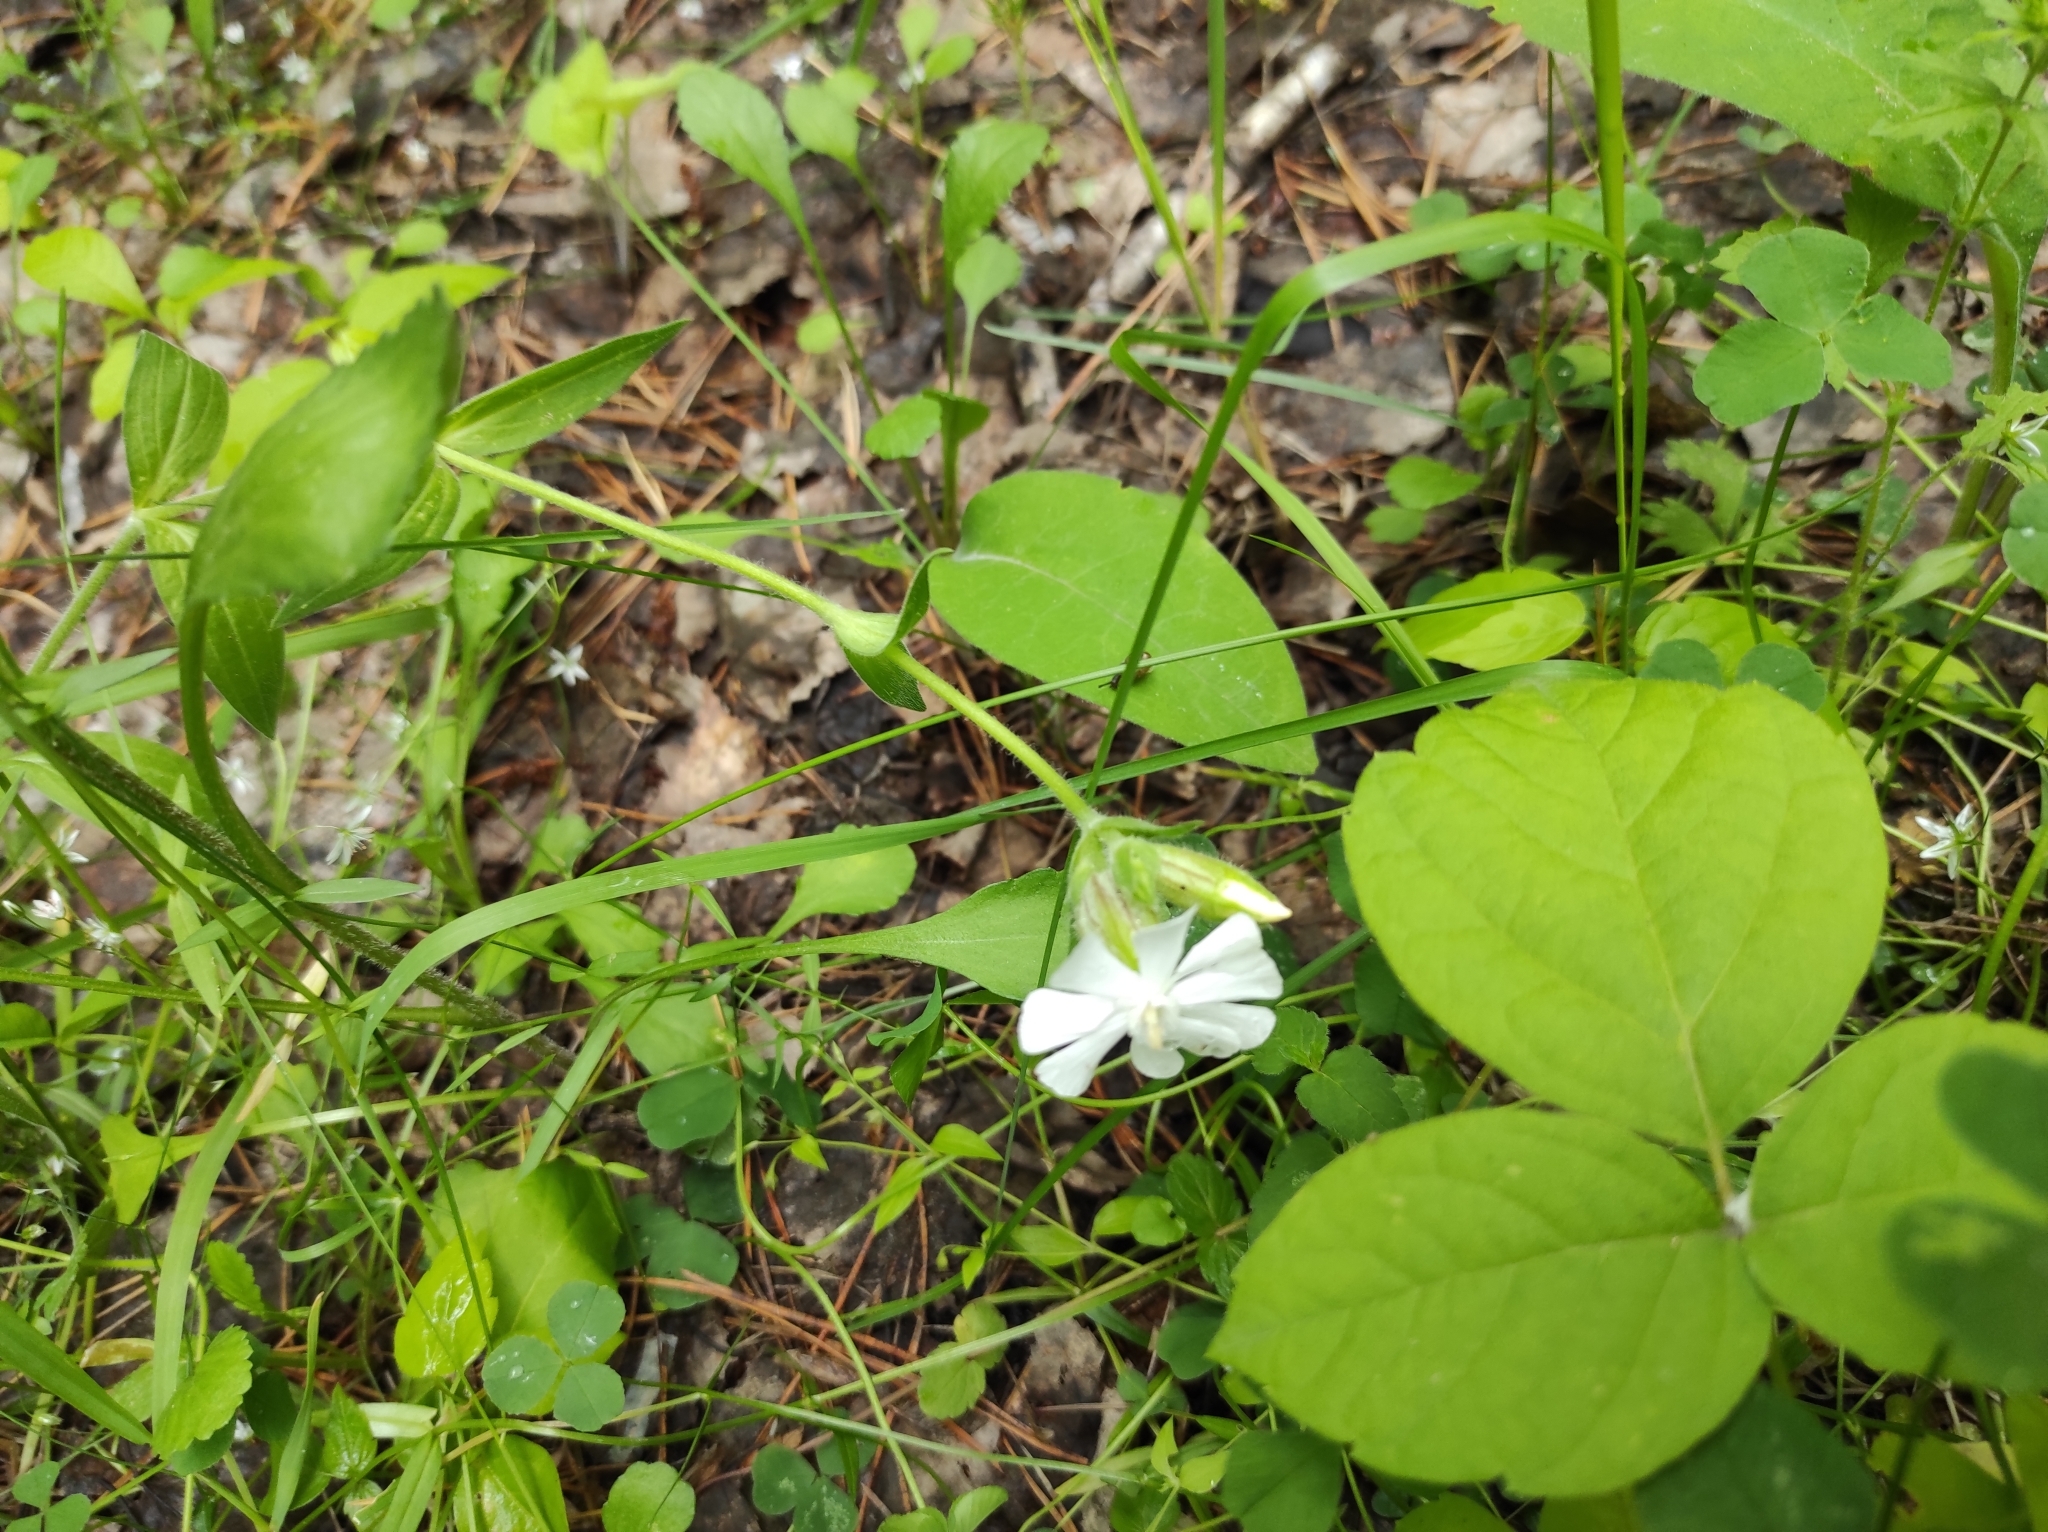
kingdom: Plantae
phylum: Tracheophyta
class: Magnoliopsida
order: Caryophyllales
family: Caryophyllaceae
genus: Silene
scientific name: Silene latifolia
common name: White campion
